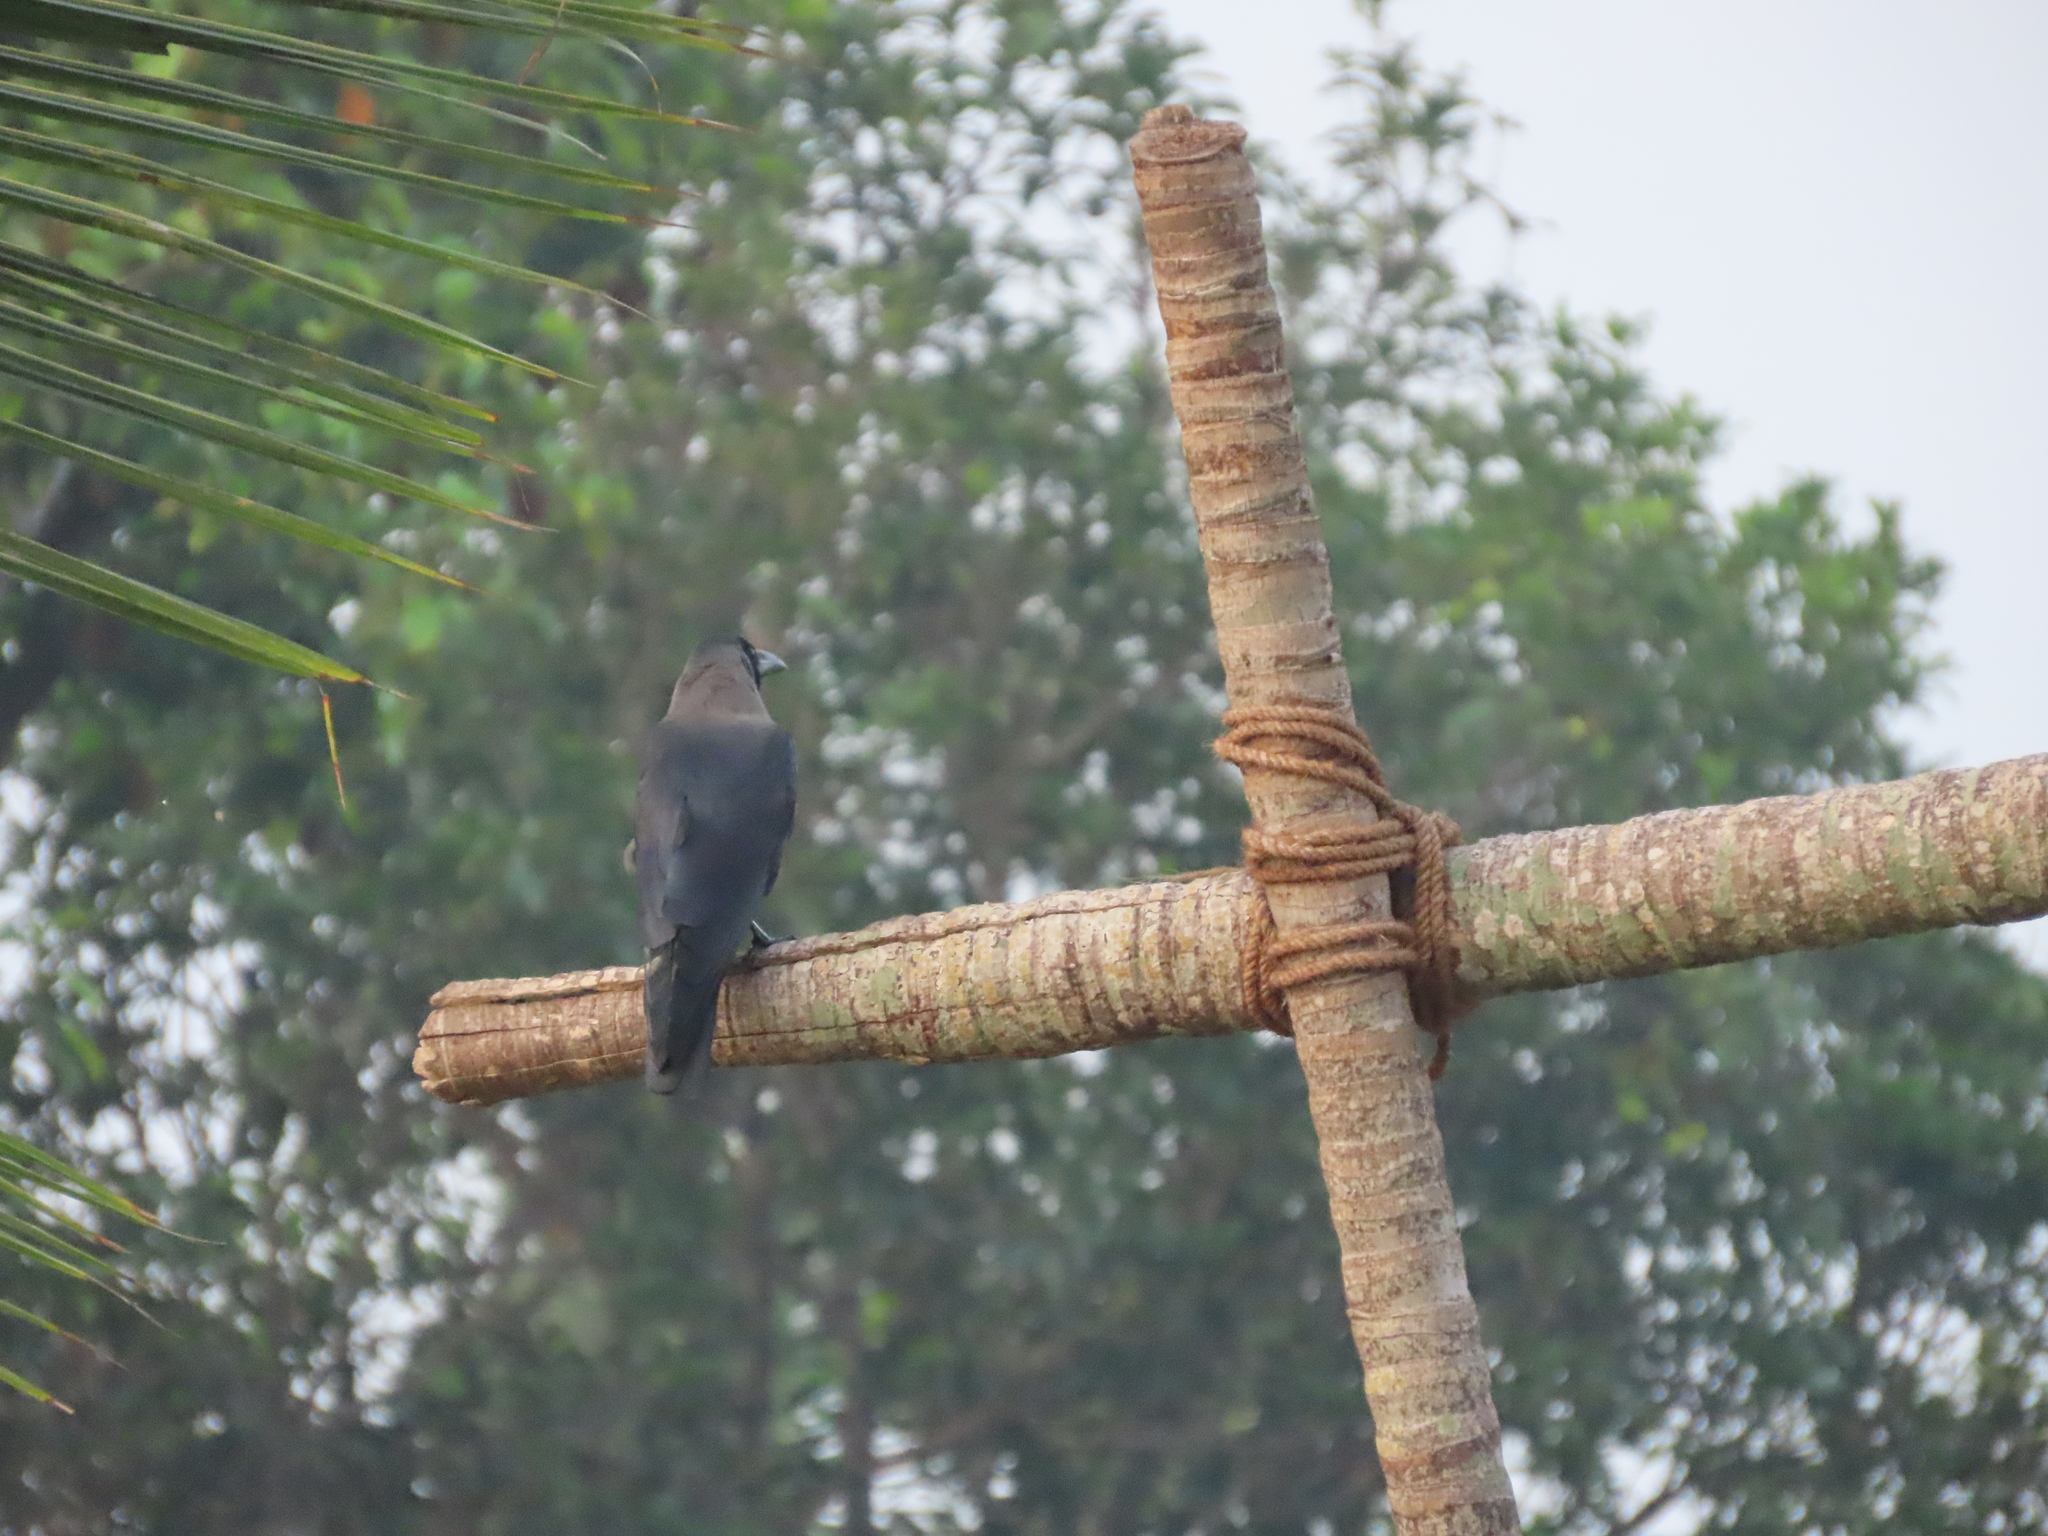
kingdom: Animalia
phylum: Chordata
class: Aves
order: Passeriformes
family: Corvidae
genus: Corvus
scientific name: Corvus splendens
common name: House crow
